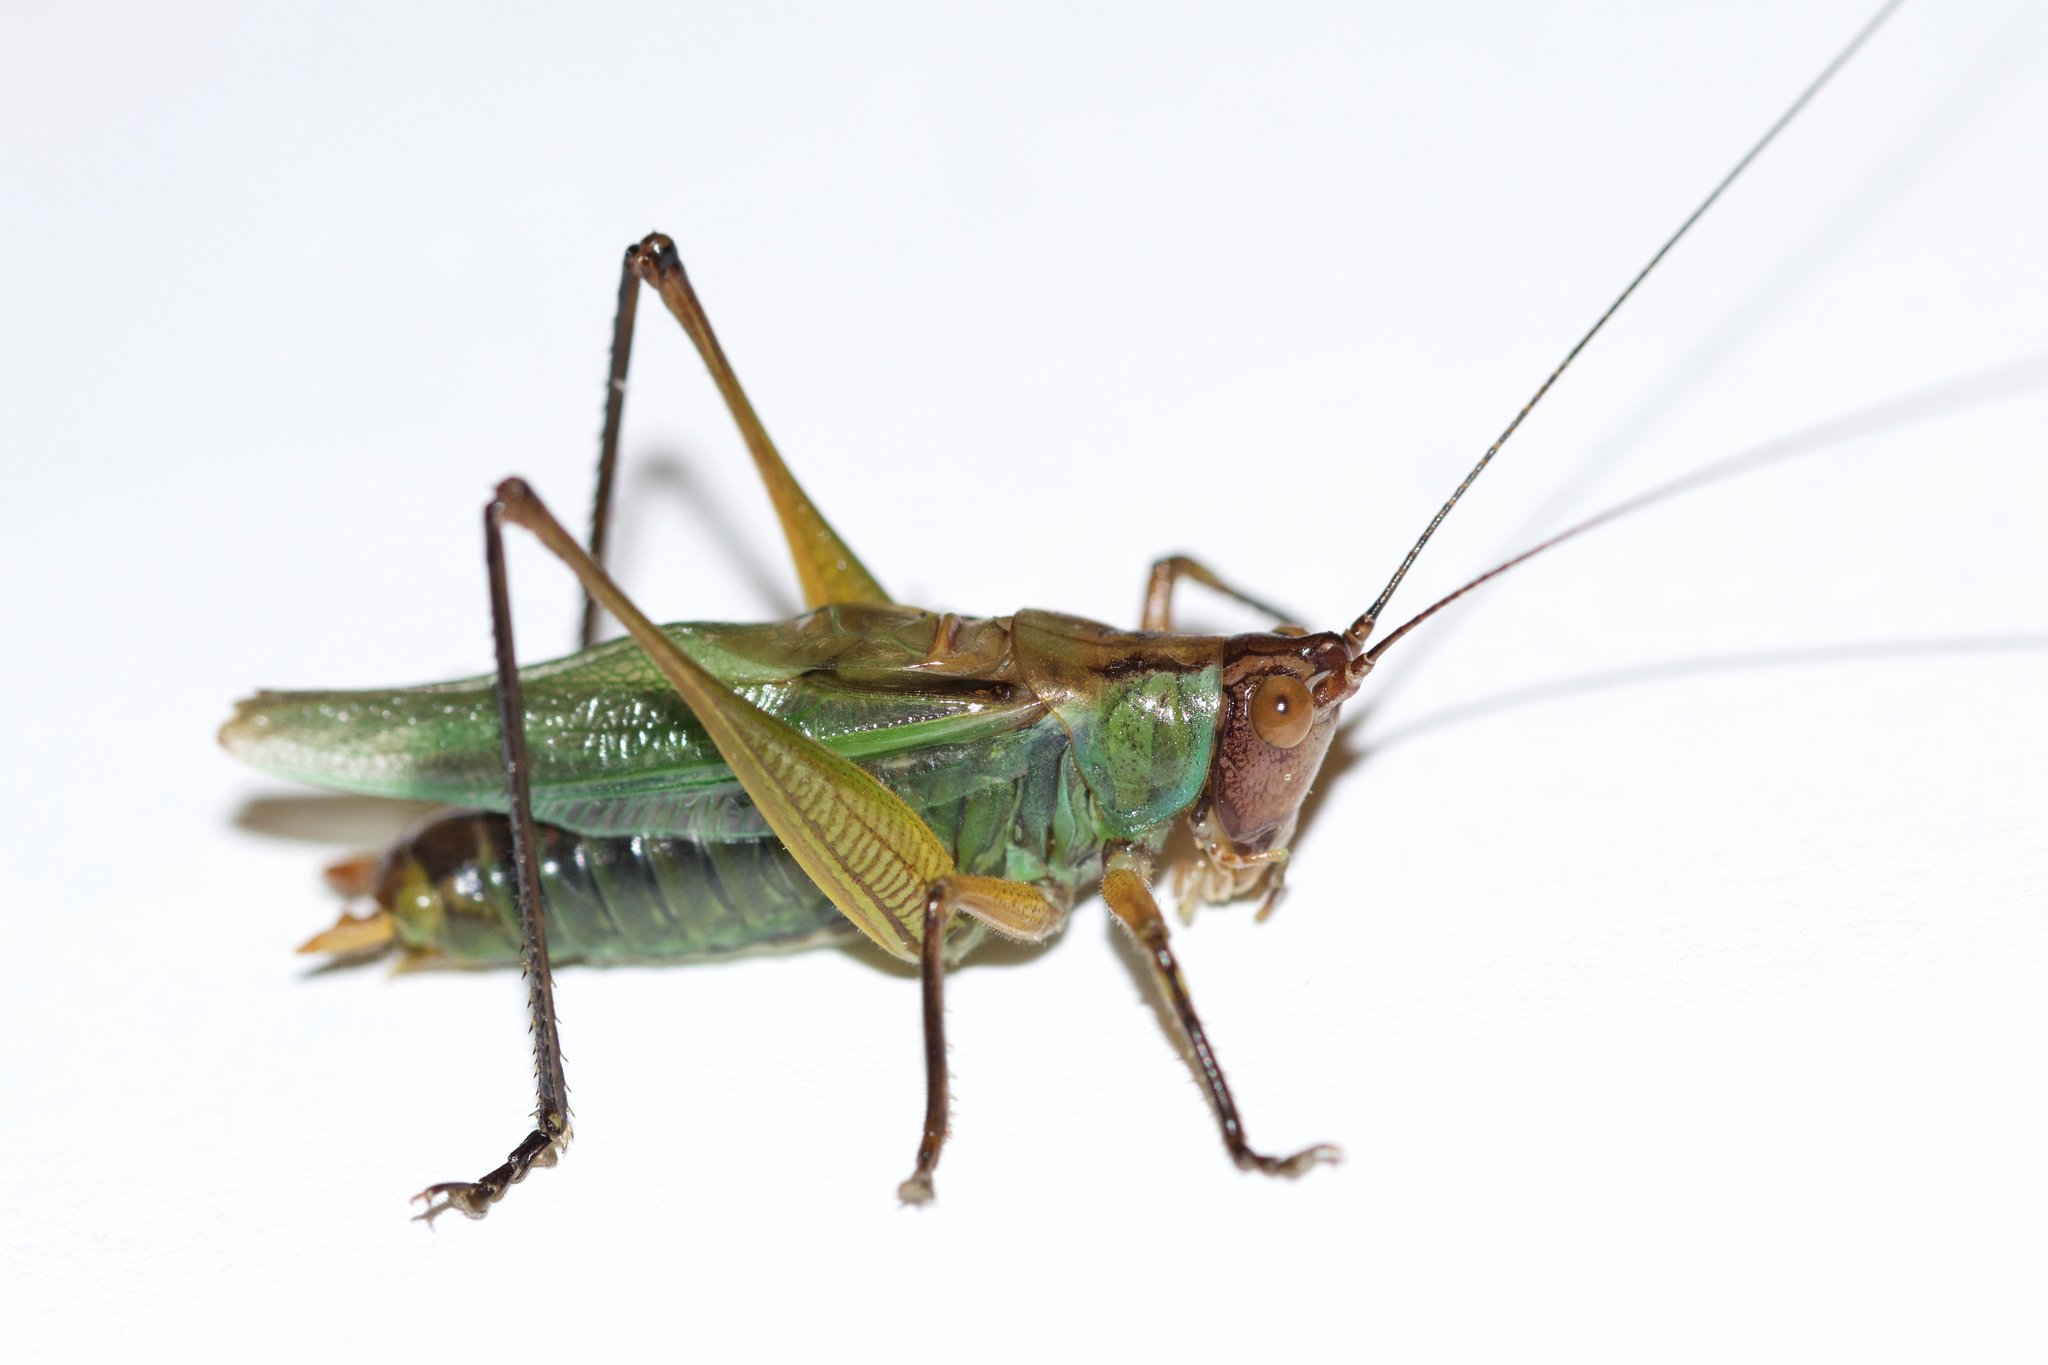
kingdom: Animalia
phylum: Arthropoda
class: Insecta
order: Orthoptera
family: Tettigoniidae
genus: Orchelimum
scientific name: Orchelimum nigripes
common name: Black-legged meadow katydid
